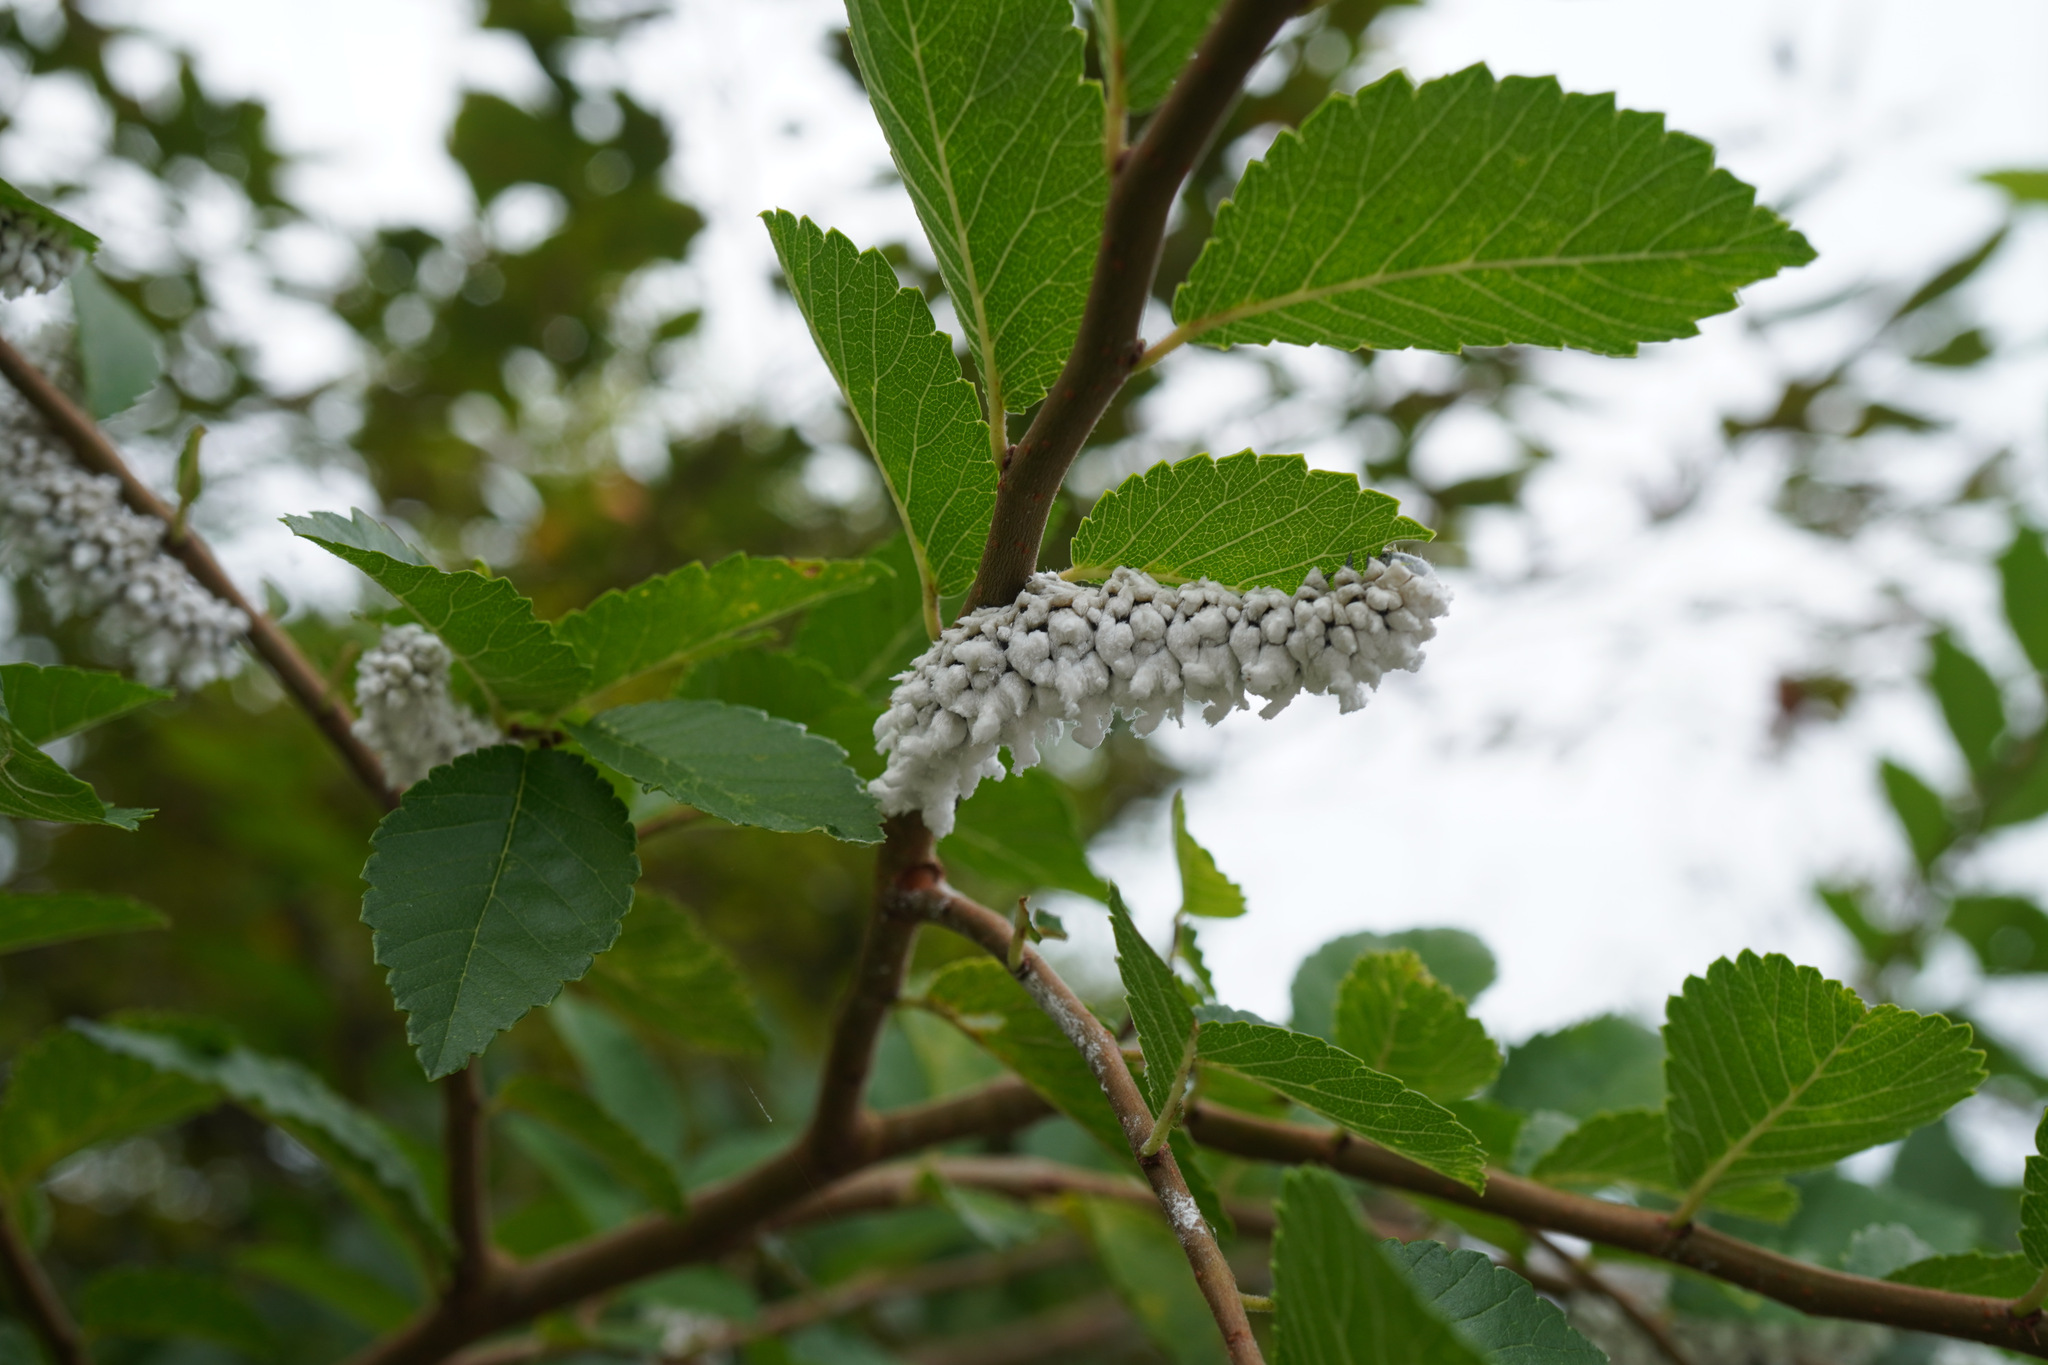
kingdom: Animalia
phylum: Arthropoda
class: Insecta
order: Lepidoptera
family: Epicopeiidae
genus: Epicopeia
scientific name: Epicopeia mencia
